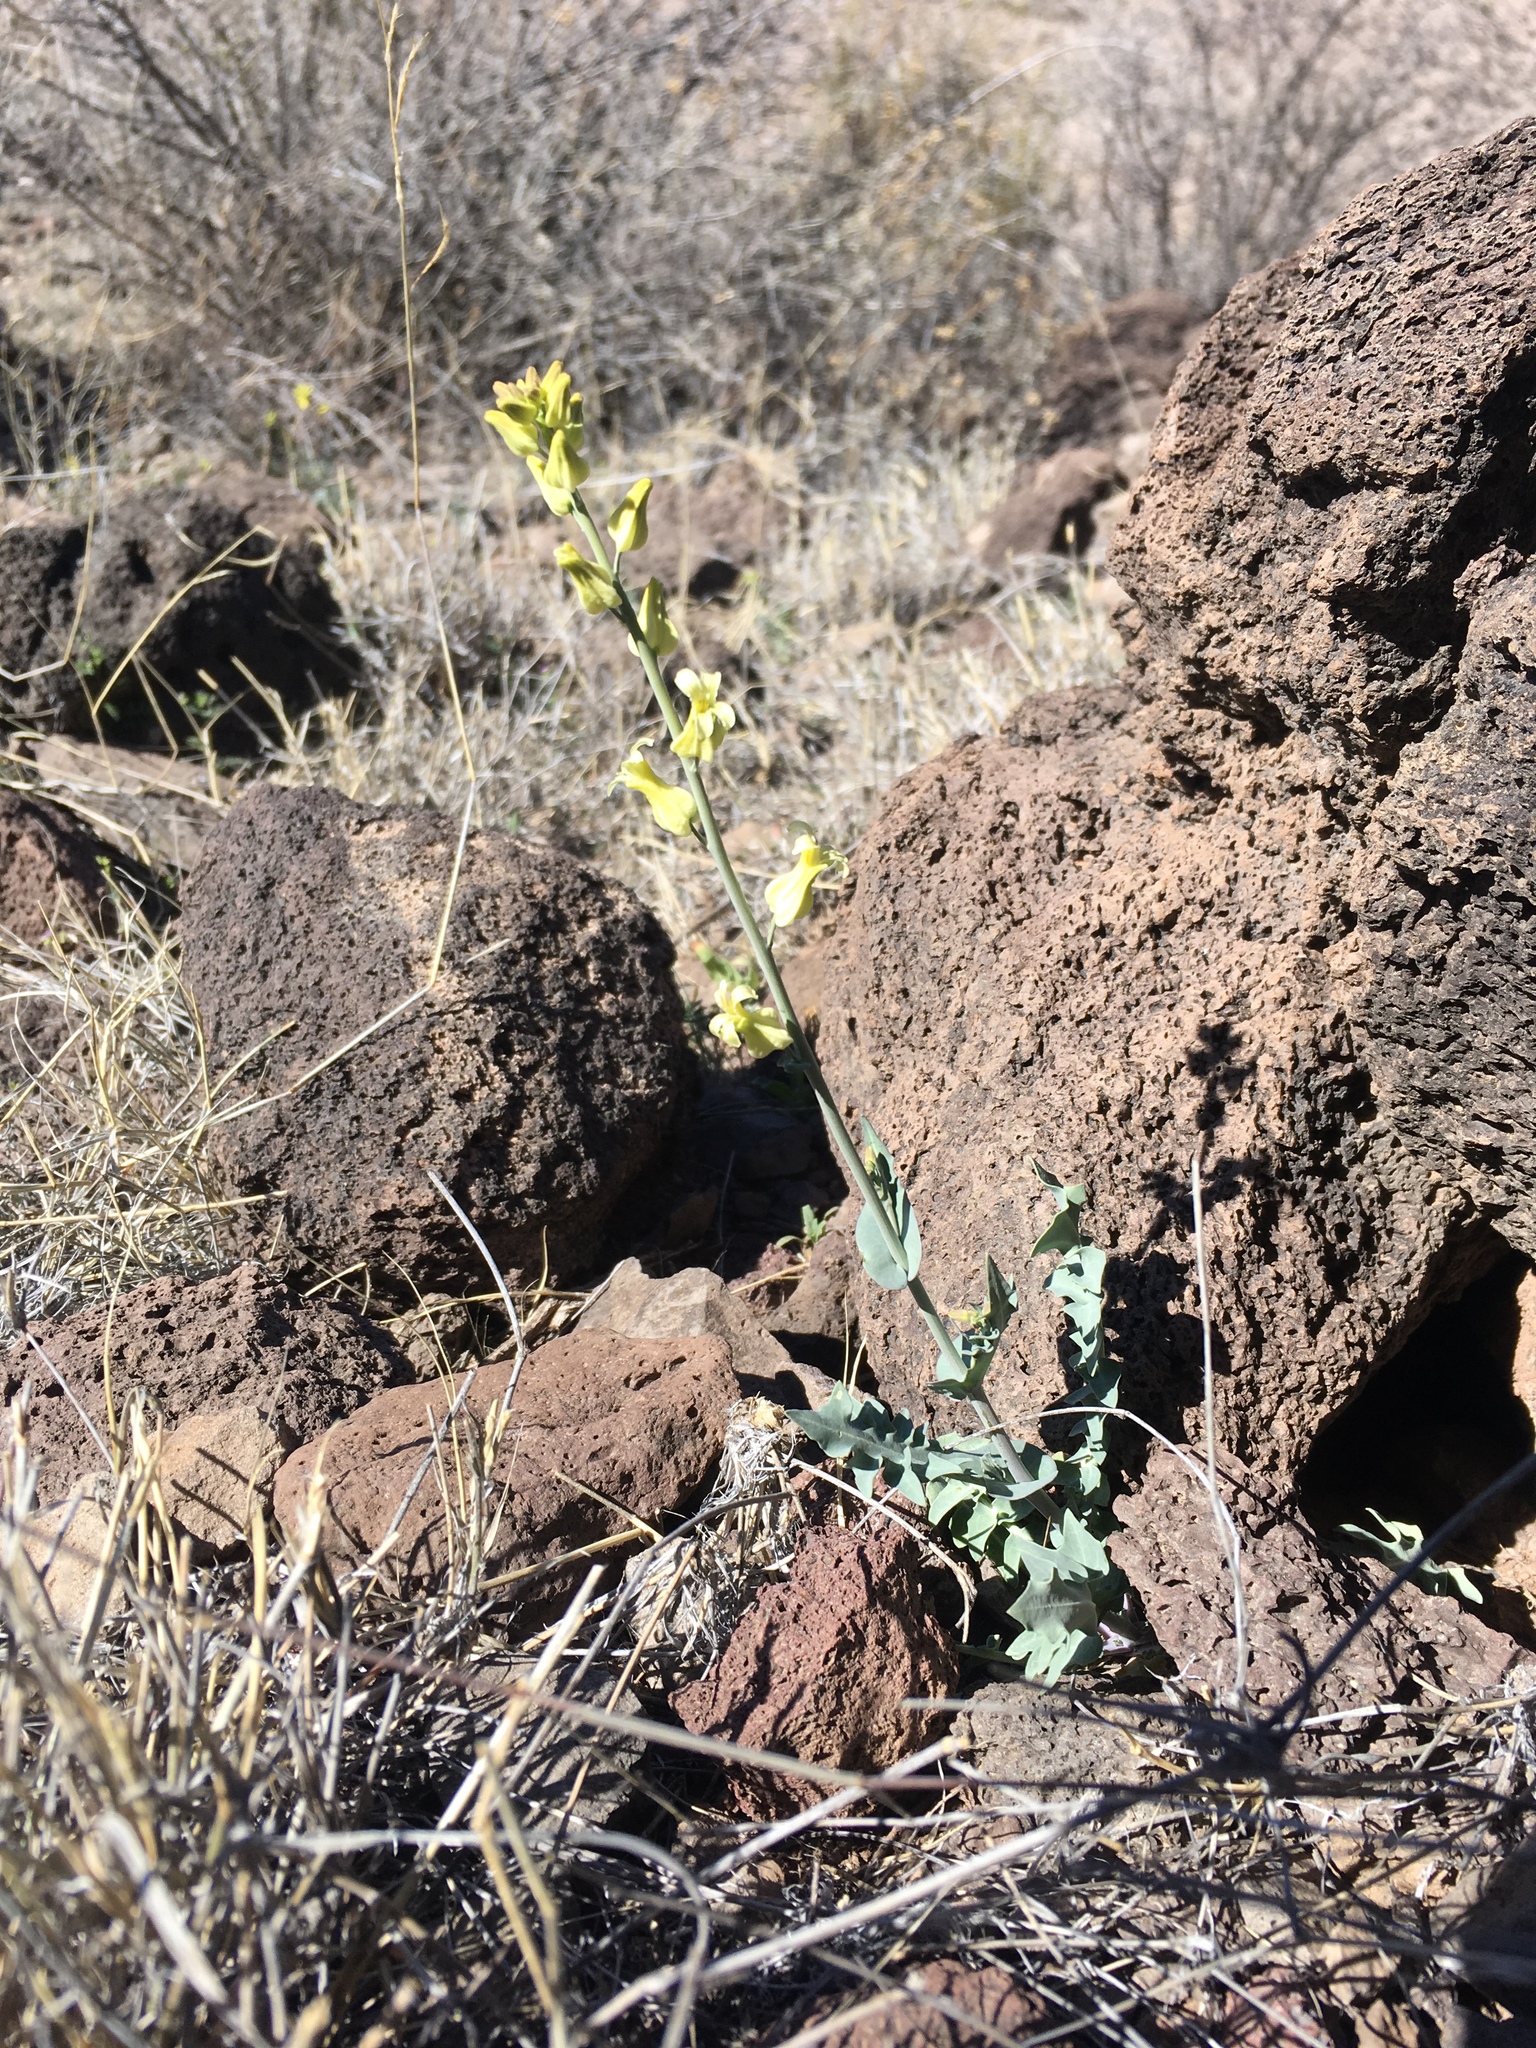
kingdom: Plantae
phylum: Tracheophyta
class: Magnoliopsida
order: Brassicales
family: Brassicaceae
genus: Streptanthus
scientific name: Streptanthus carinatus
